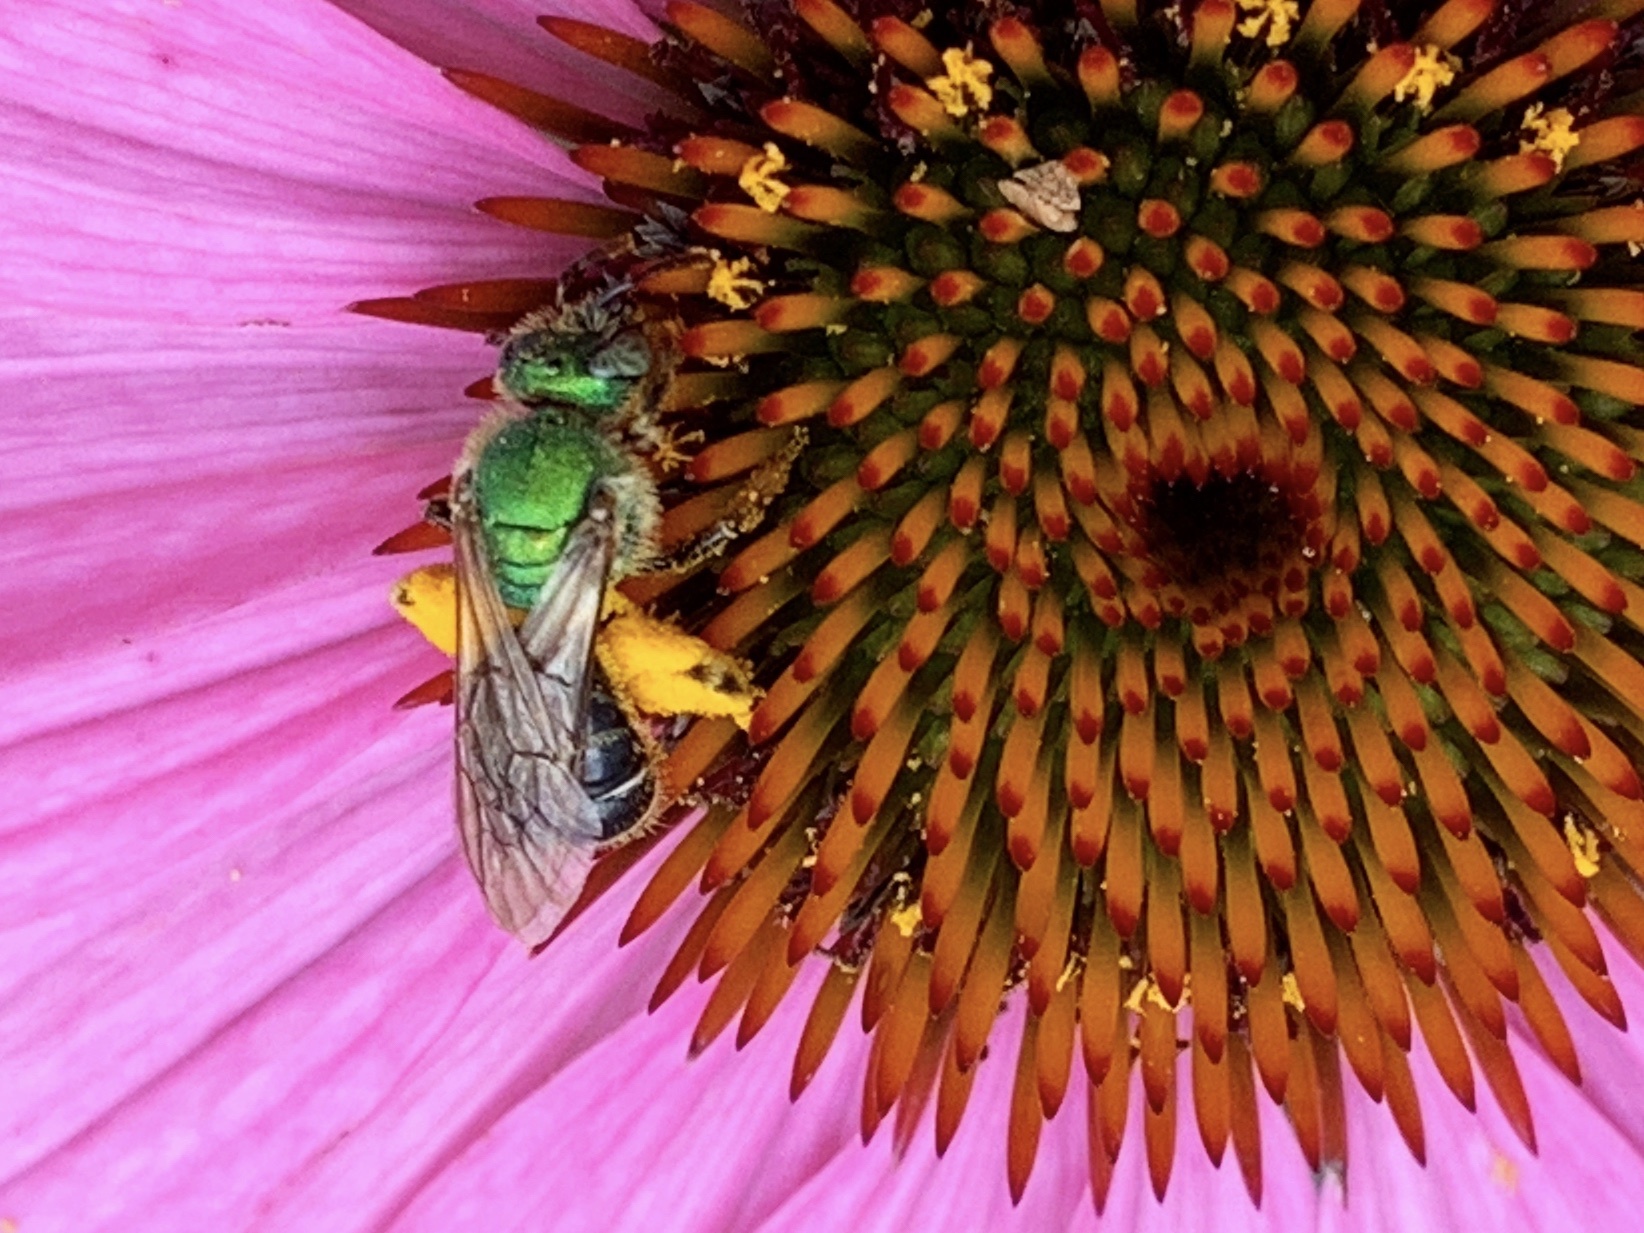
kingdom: Animalia
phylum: Arthropoda
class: Insecta
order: Hymenoptera
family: Halictidae
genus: Agapostemon
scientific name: Agapostemon virescens
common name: Bicolored striped sweat bee
